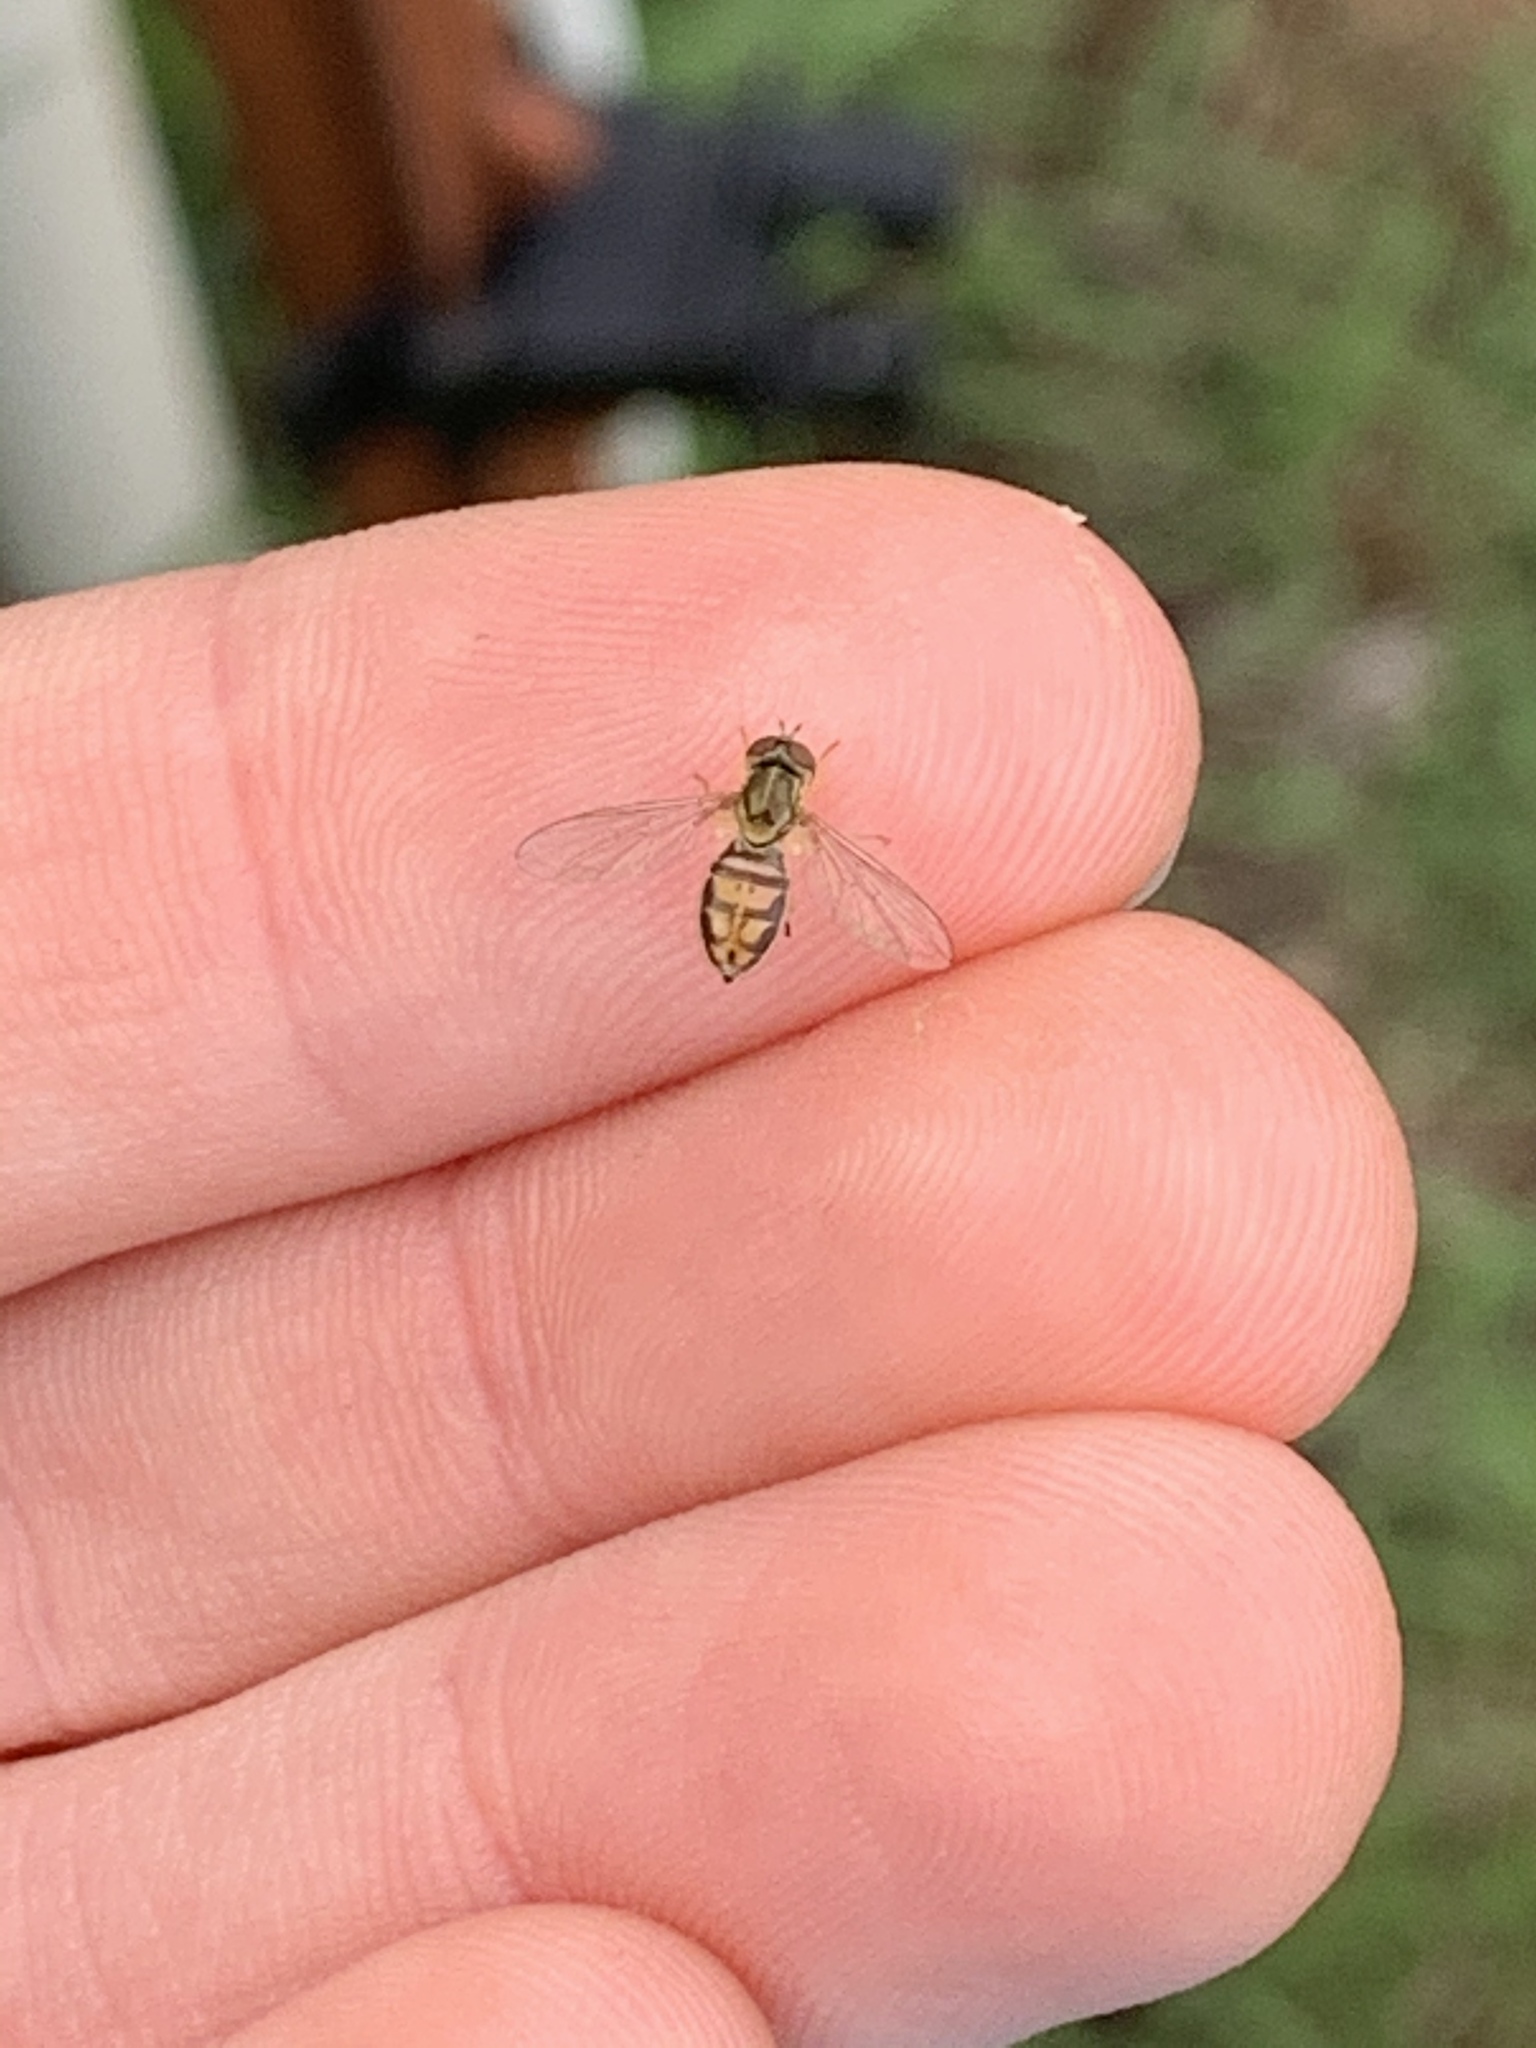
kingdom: Animalia
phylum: Arthropoda
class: Insecta
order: Diptera
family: Syrphidae
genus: Toxomerus
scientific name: Toxomerus marginatus
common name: Syrphid fly
